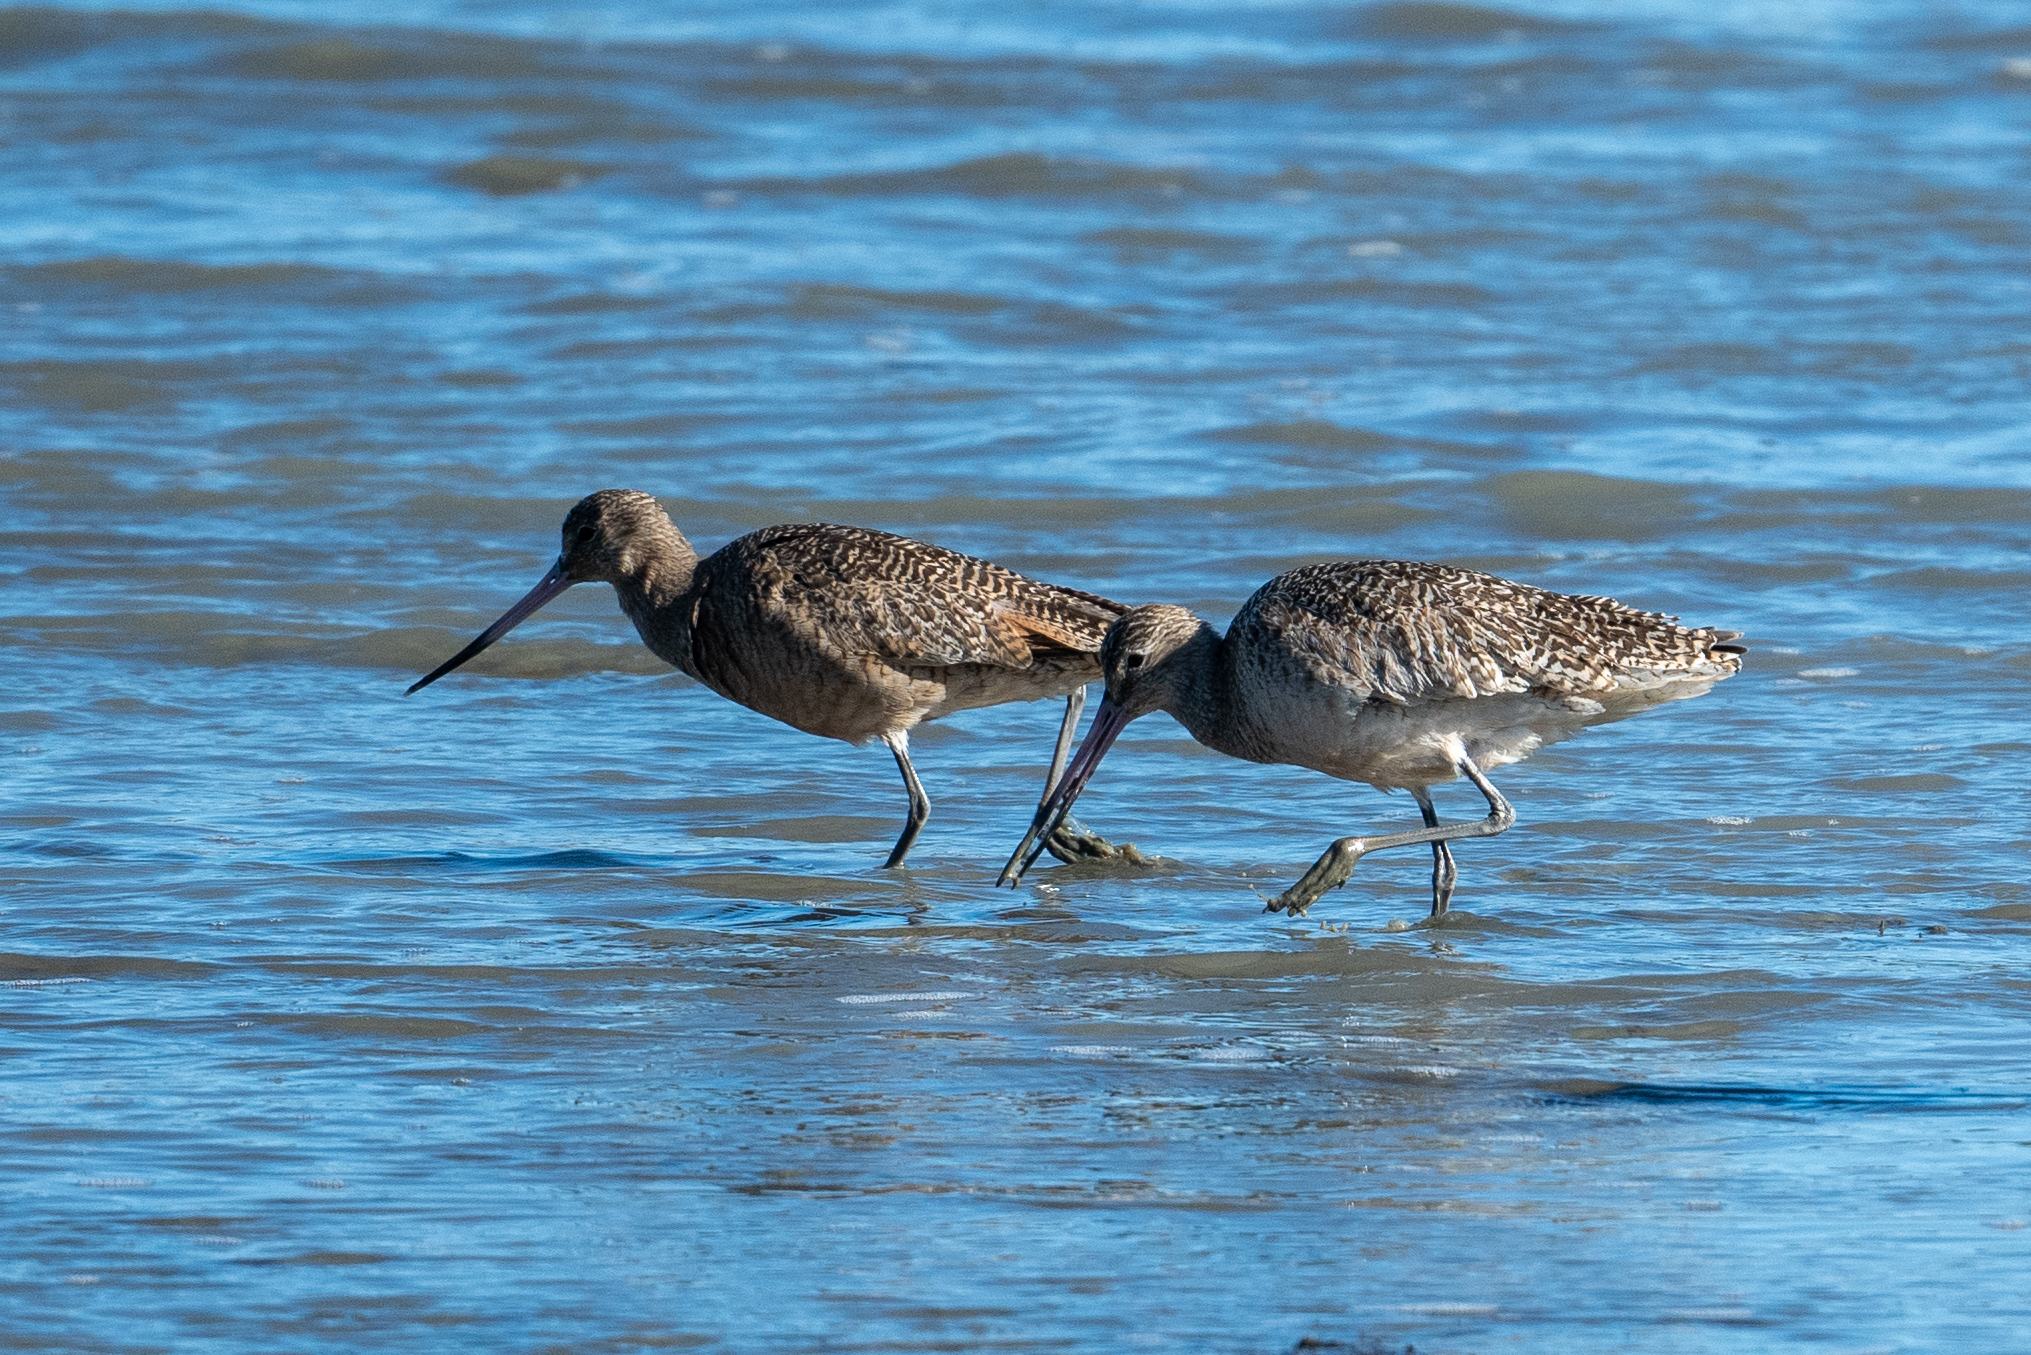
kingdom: Animalia
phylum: Chordata
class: Aves
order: Charadriiformes
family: Scolopacidae
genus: Limosa
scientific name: Limosa fedoa
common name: Marbled godwit
